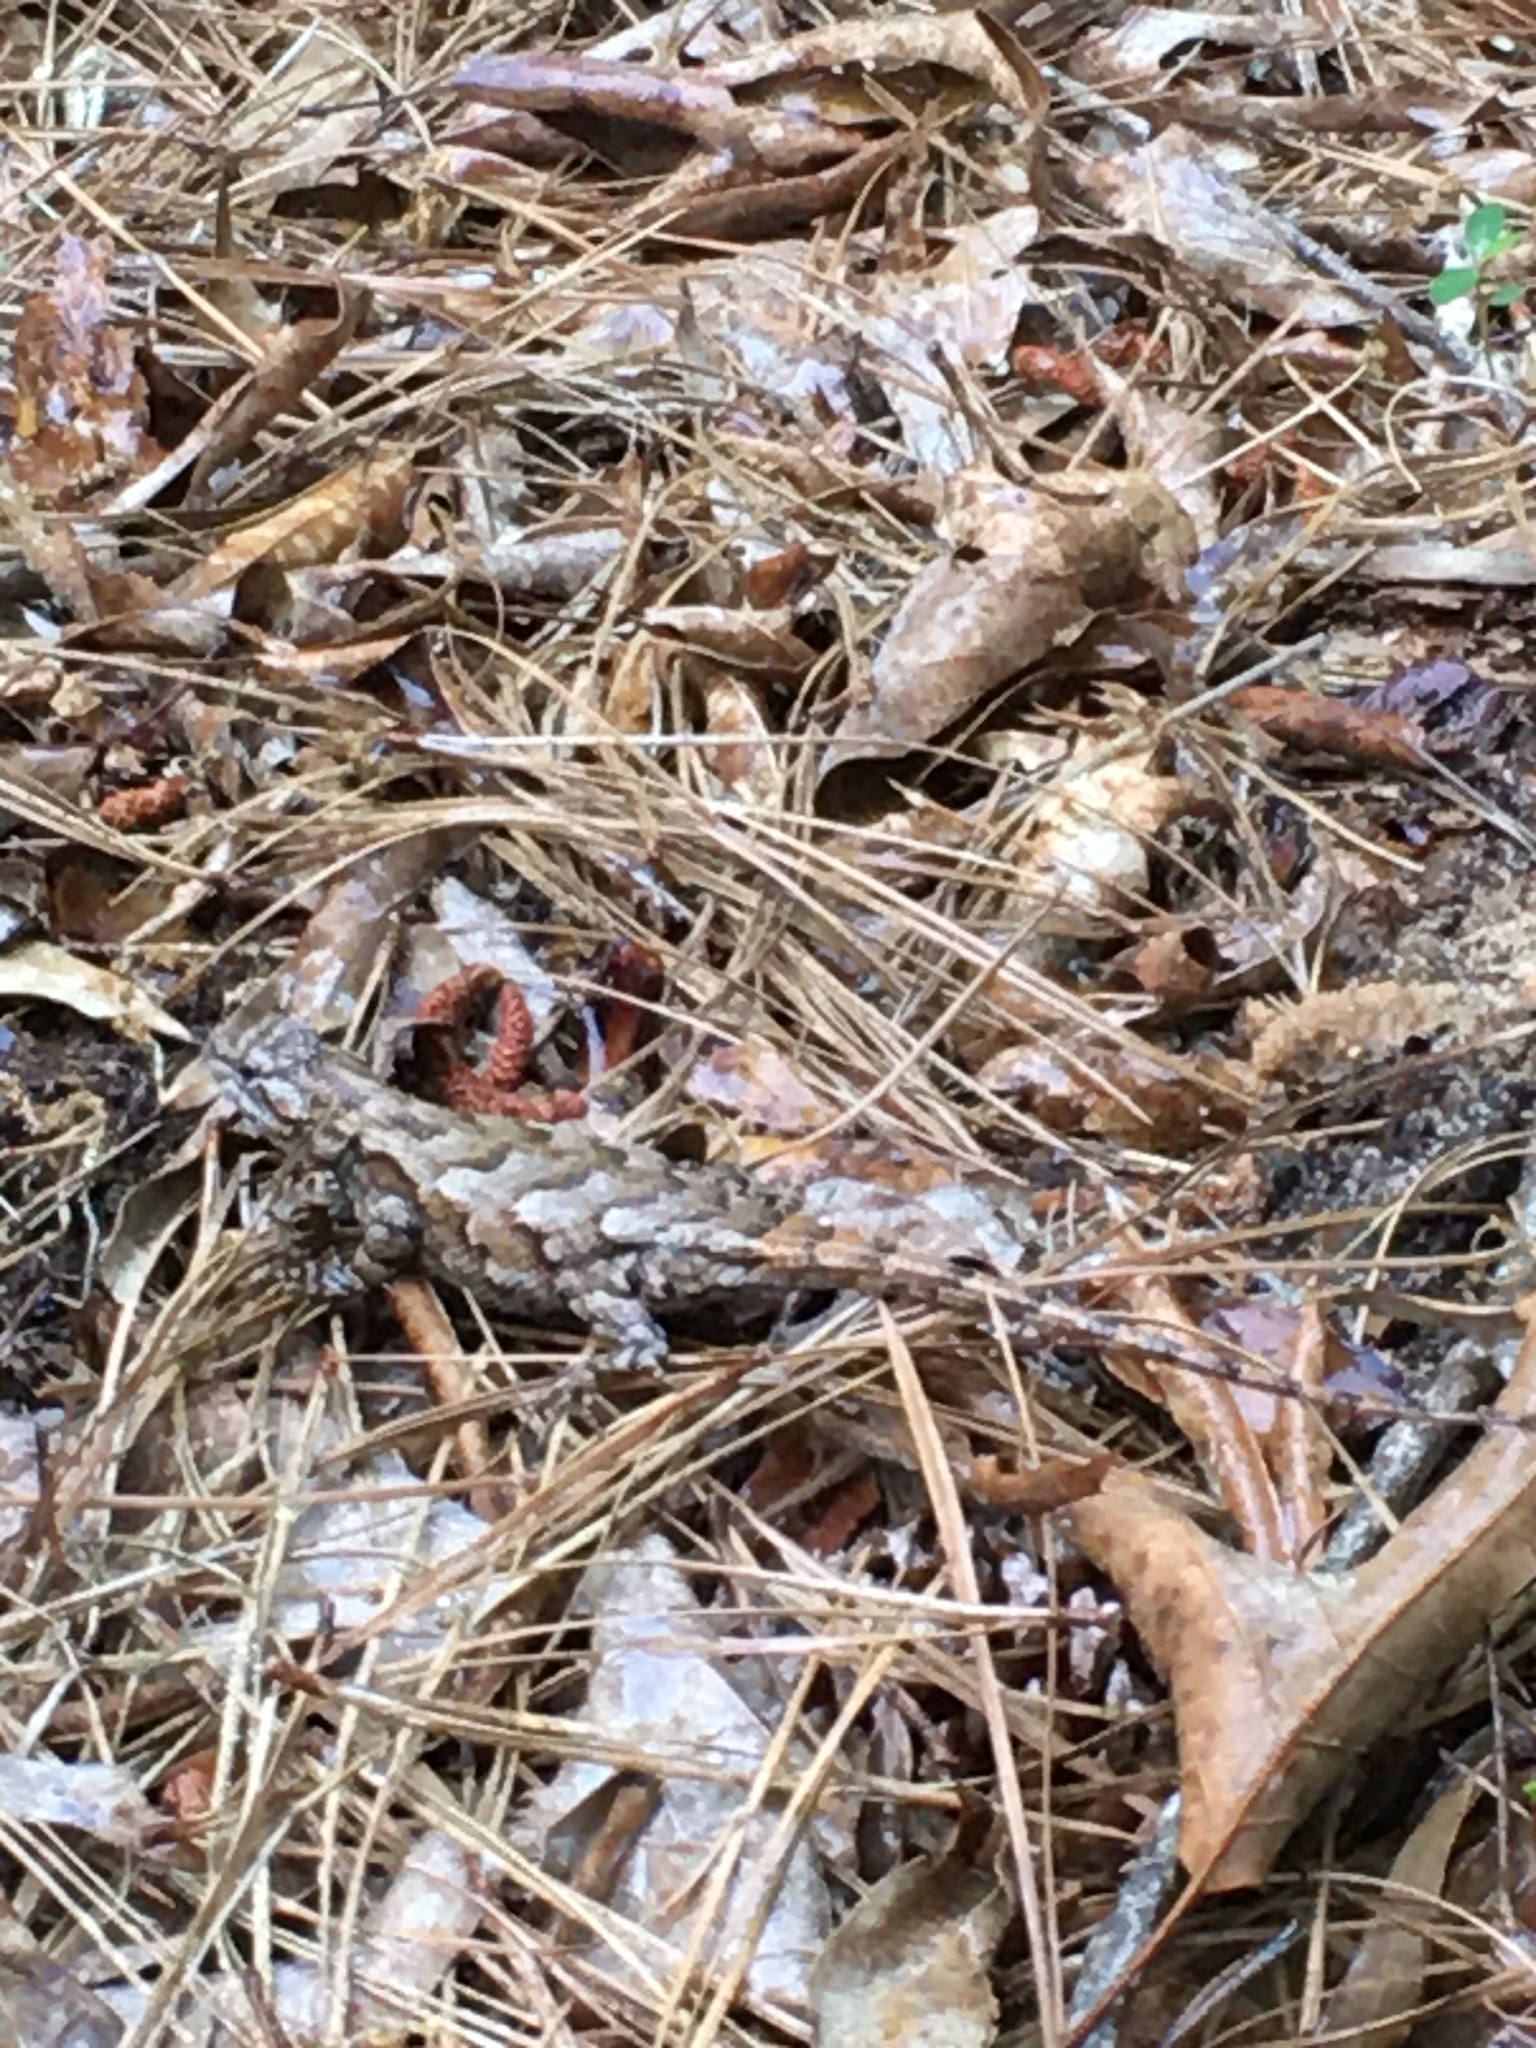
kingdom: Animalia
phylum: Chordata
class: Squamata
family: Phrynosomatidae
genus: Sceloporus
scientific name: Sceloporus undulatus
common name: Eastern fence lizard
